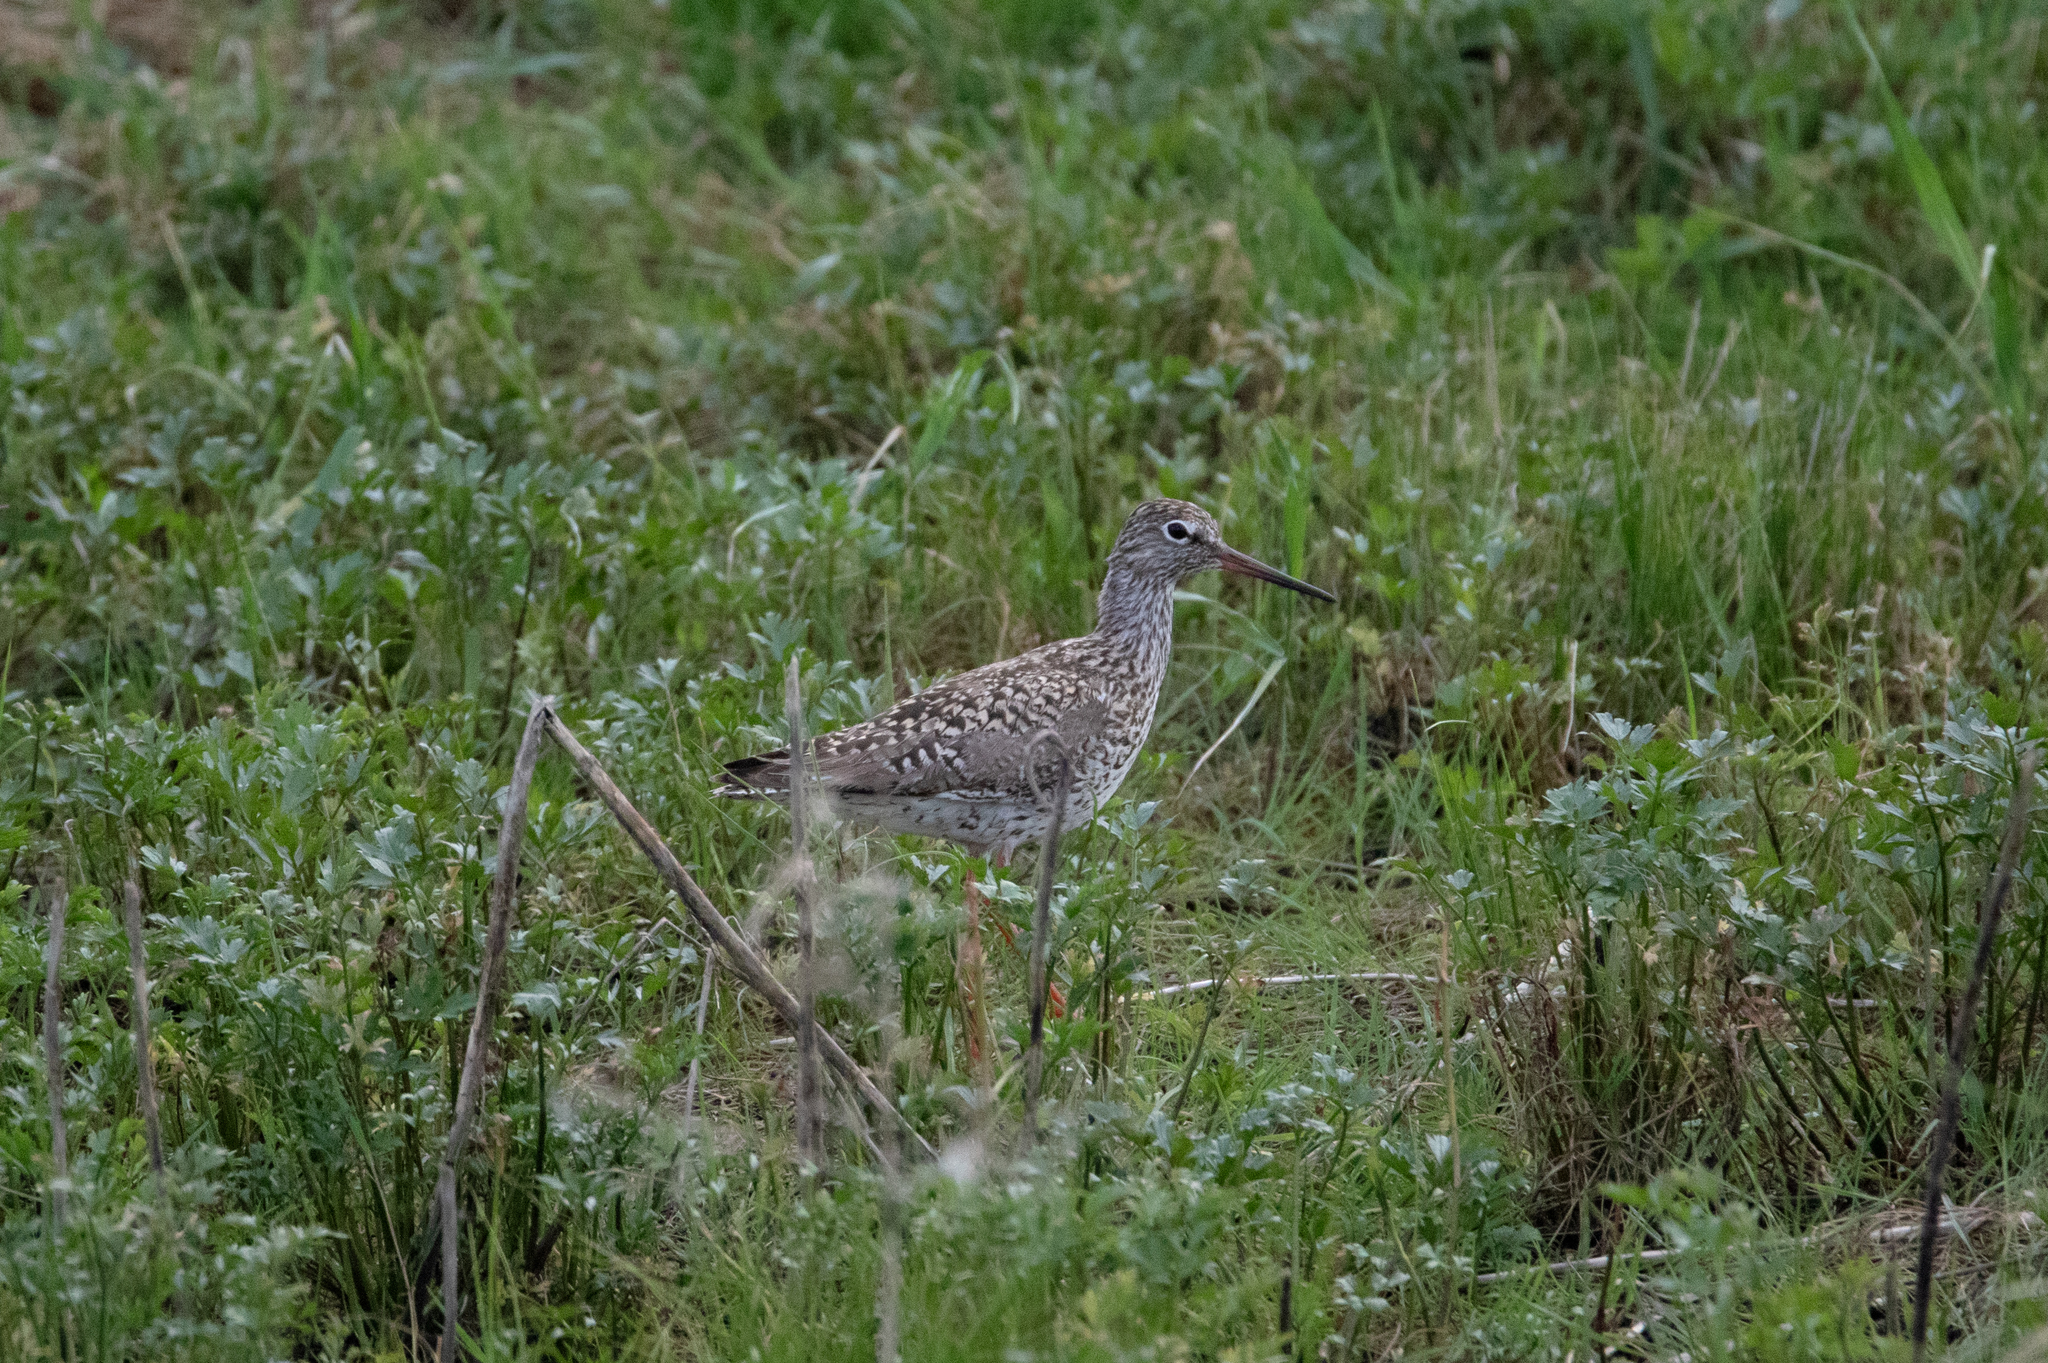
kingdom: Animalia
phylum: Chordata
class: Aves
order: Charadriiformes
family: Scolopacidae
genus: Tringa
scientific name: Tringa totanus
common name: Common redshank
